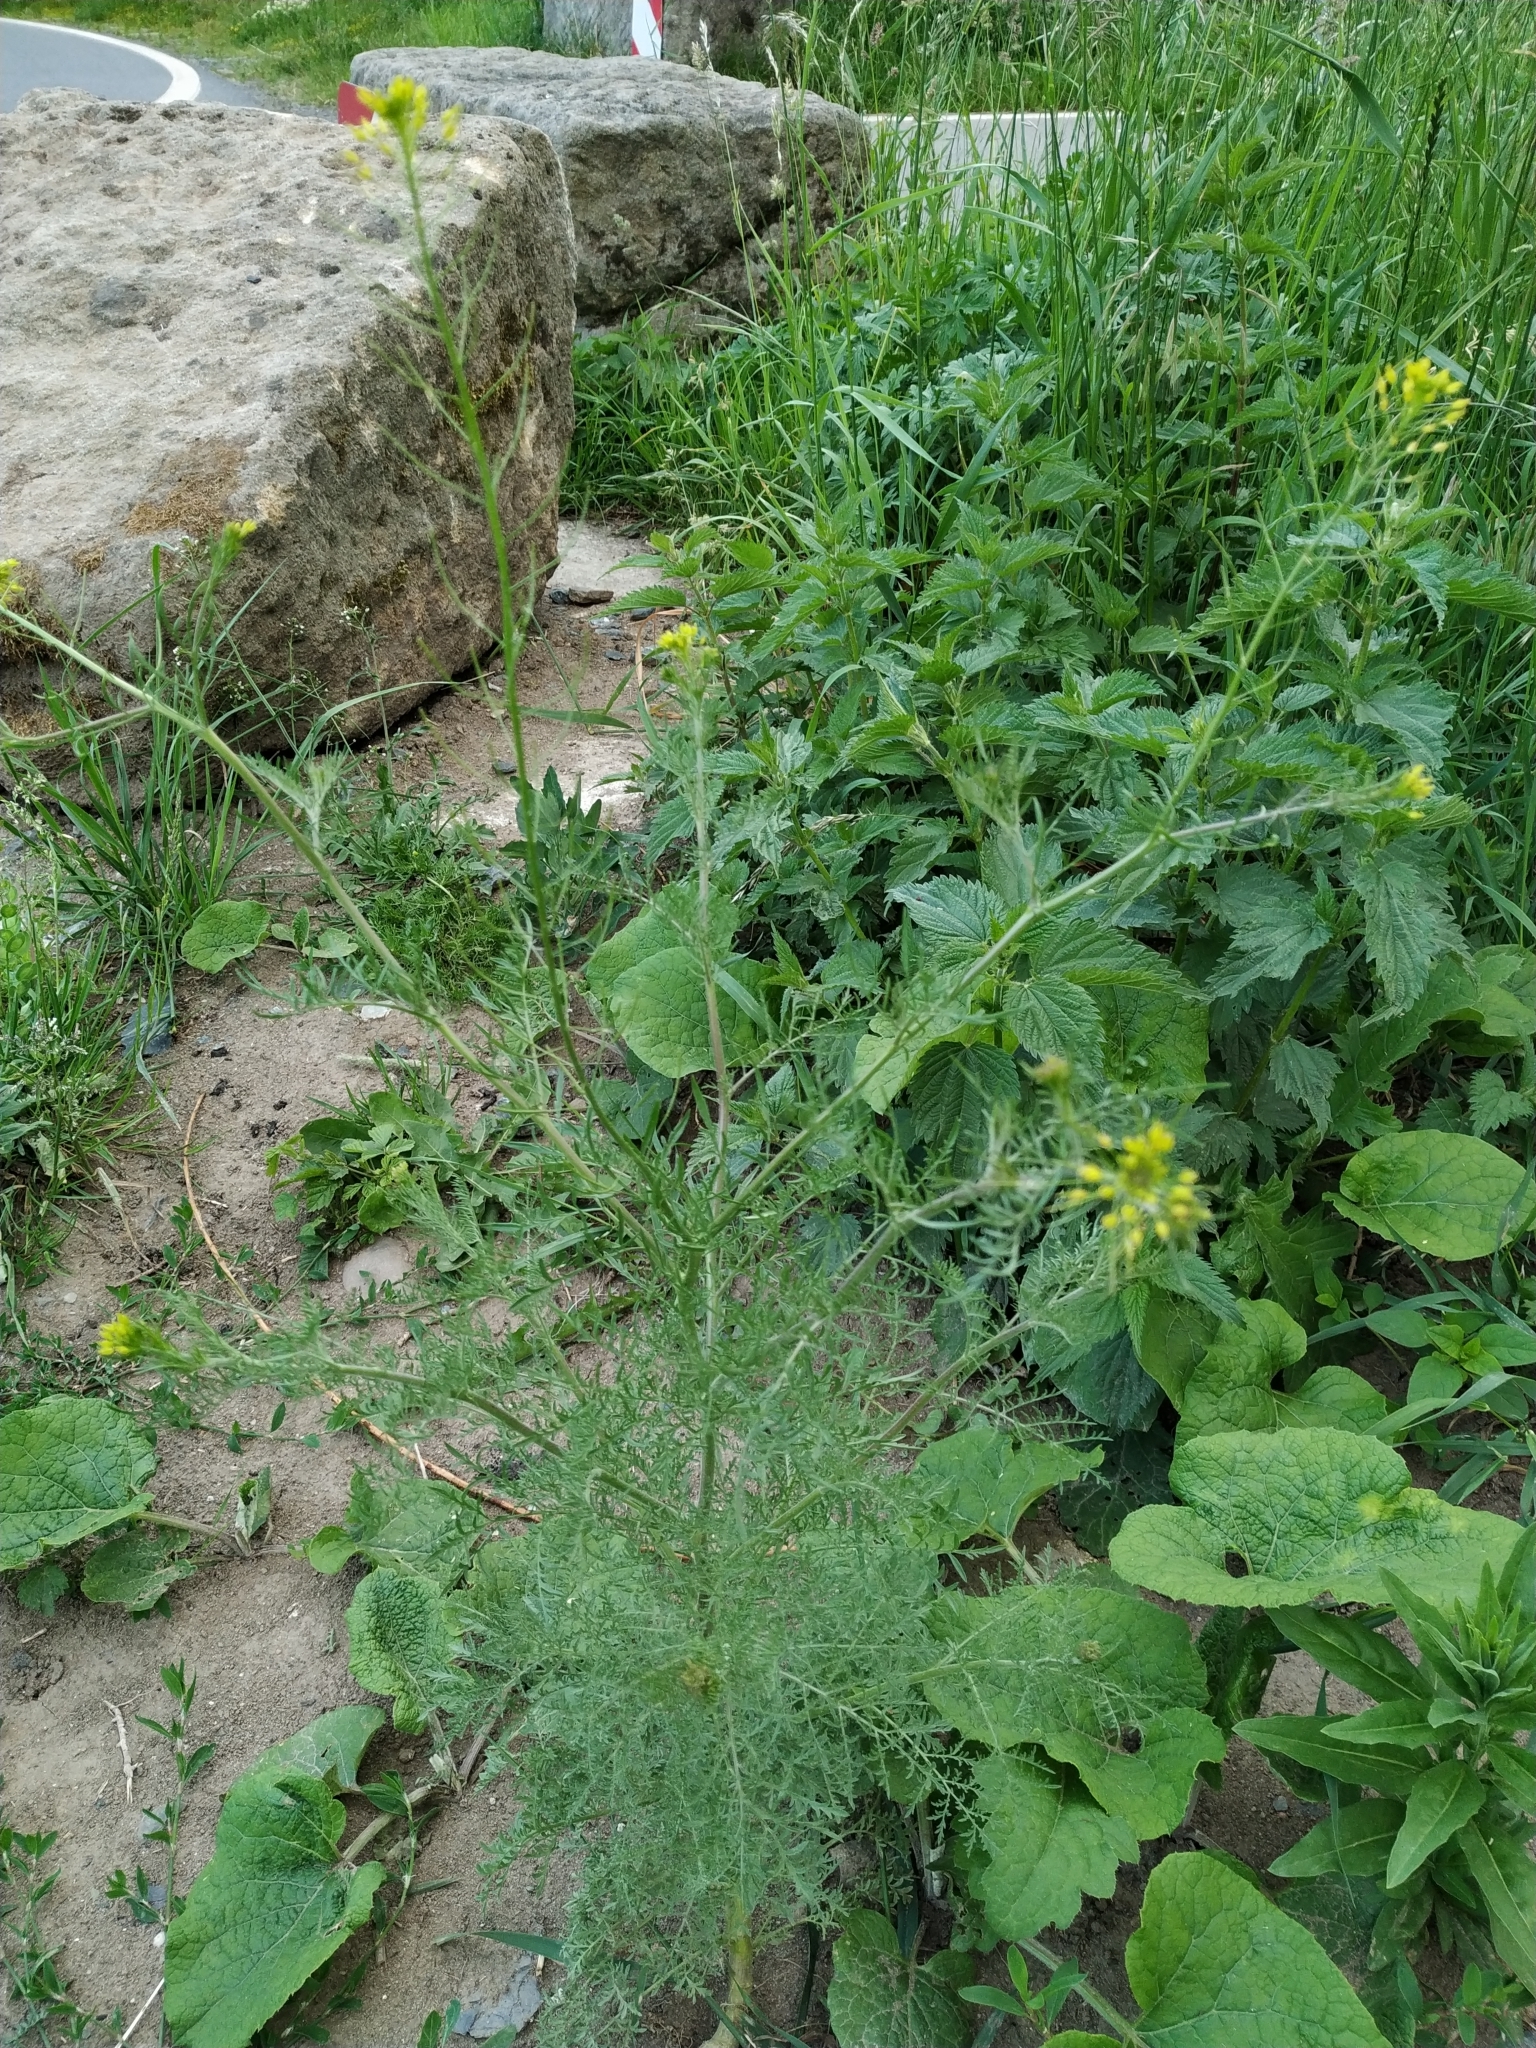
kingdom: Plantae
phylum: Tracheophyta
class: Magnoliopsida
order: Brassicales
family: Brassicaceae
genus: Descurainia
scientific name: Descurainia sophia
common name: Flixweed
